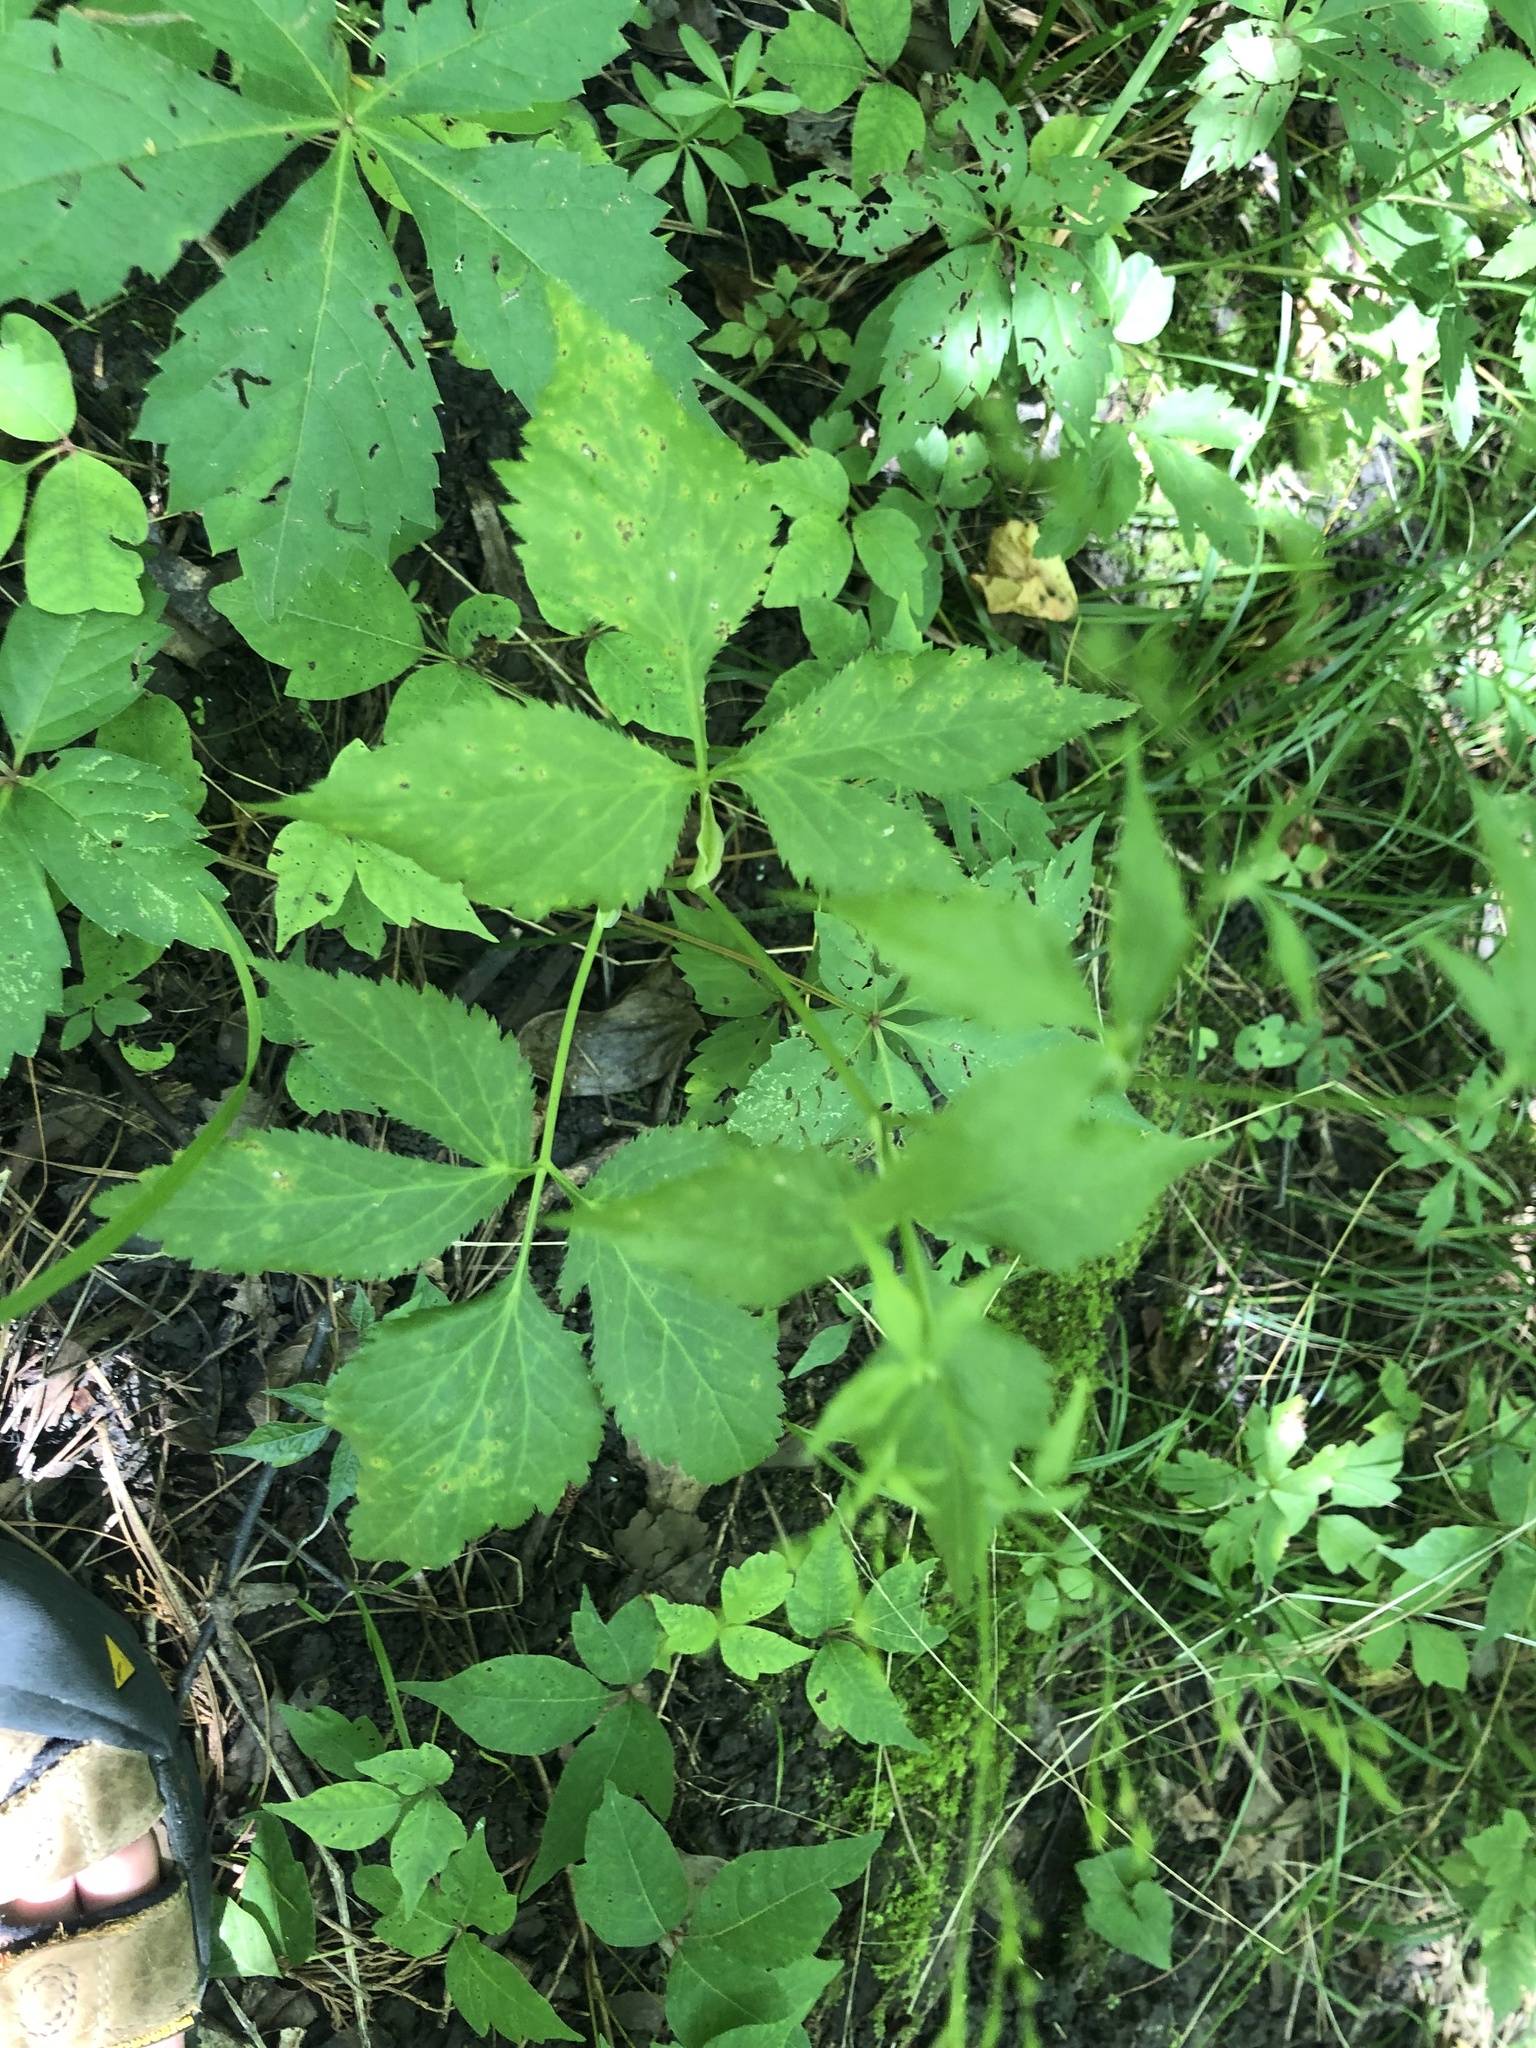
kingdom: Plantae
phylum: Tracheophyta
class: Magnoliopsida
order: Apiales
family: Apiaceae
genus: Cryptotaenia
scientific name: Cryptotaenia canadensis
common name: Honewort
